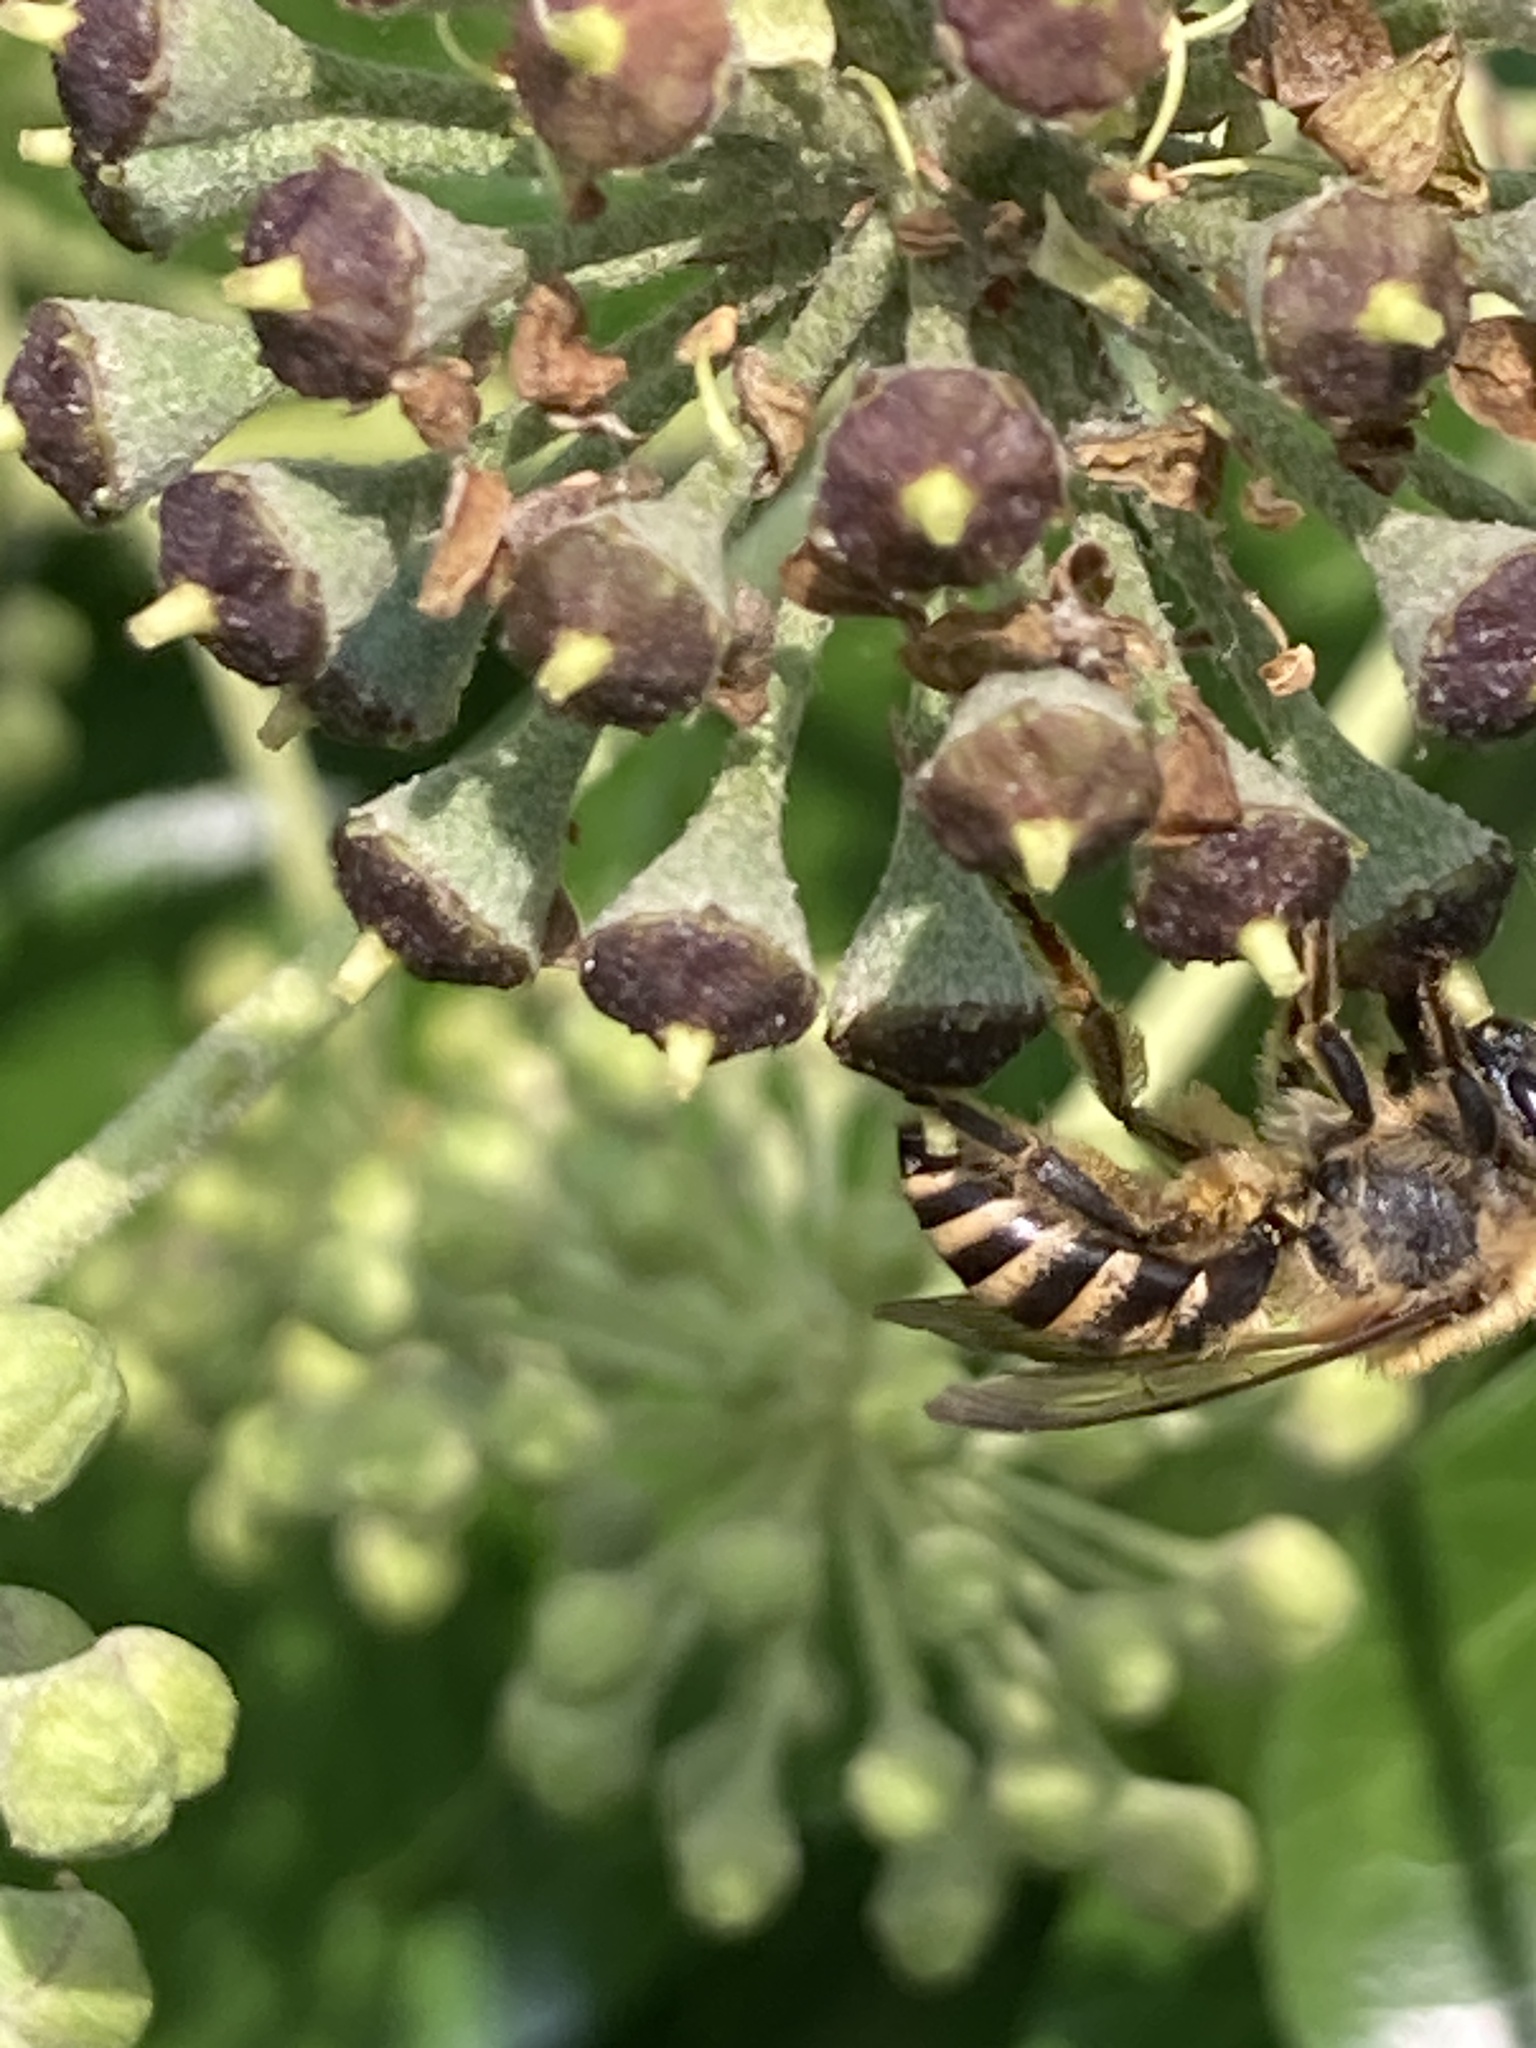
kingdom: Animalia
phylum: Arthropoda
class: Insecta
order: Hymenoptera
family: Colletidae
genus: Colletes
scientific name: Colletes hederae
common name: Ivy bee
